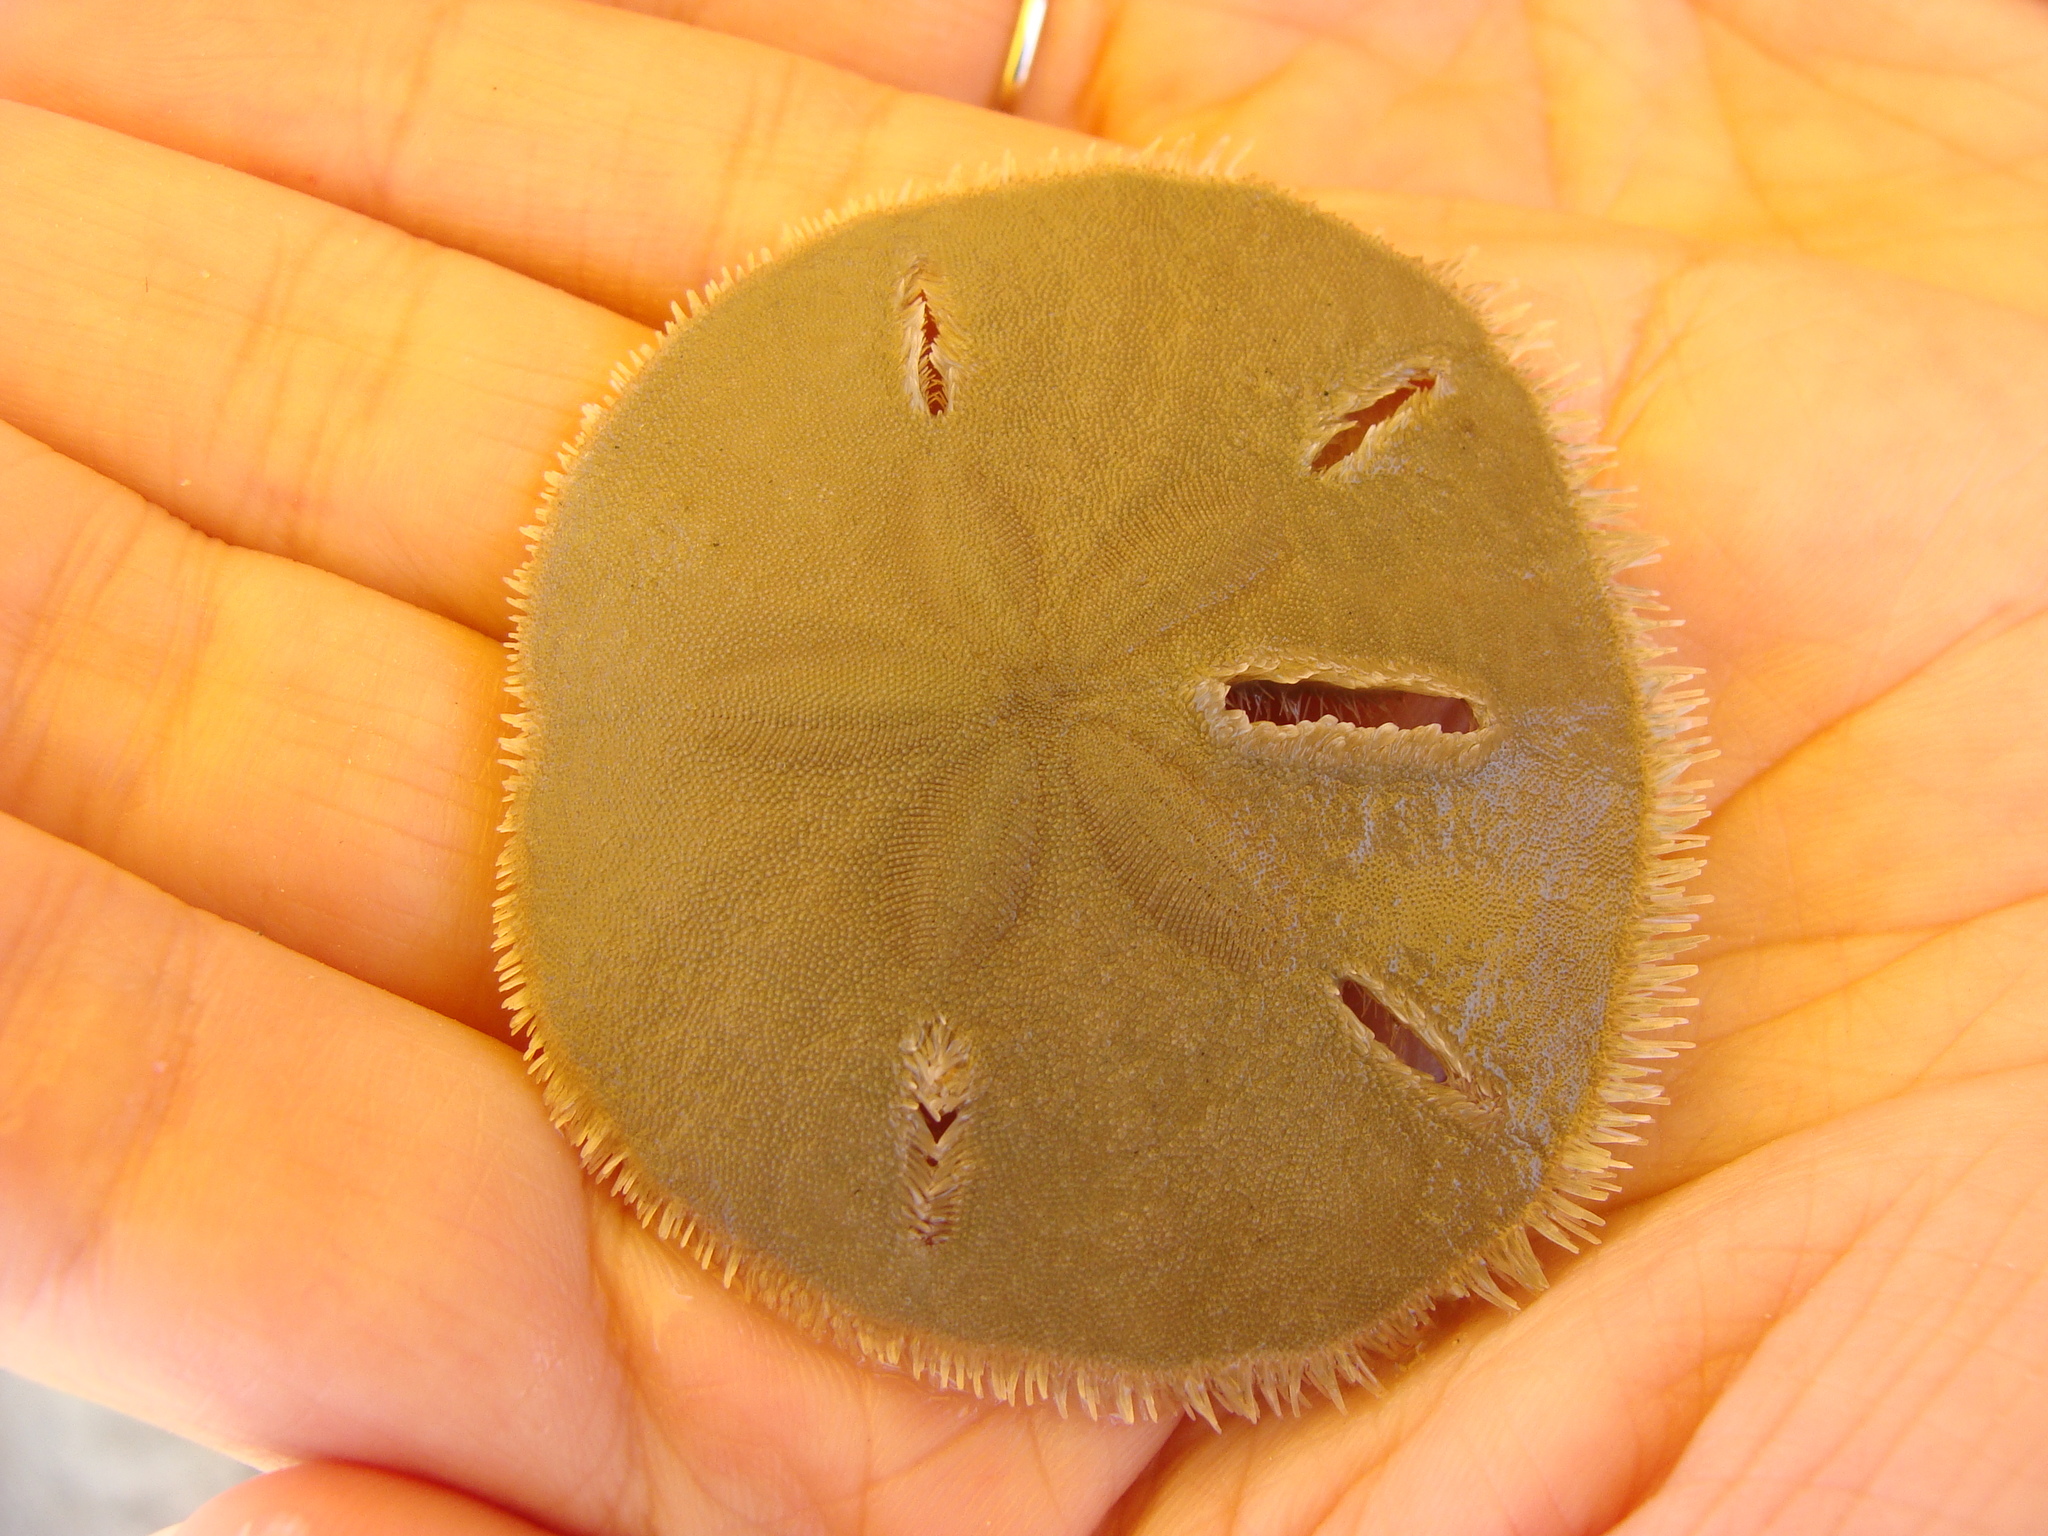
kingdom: Animalia
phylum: Echinodermata
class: Echinoidea
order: Echinolampadacea
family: Mellitidae
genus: Mellita
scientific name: Mellita quinquiesperforata
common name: Sand dollar
